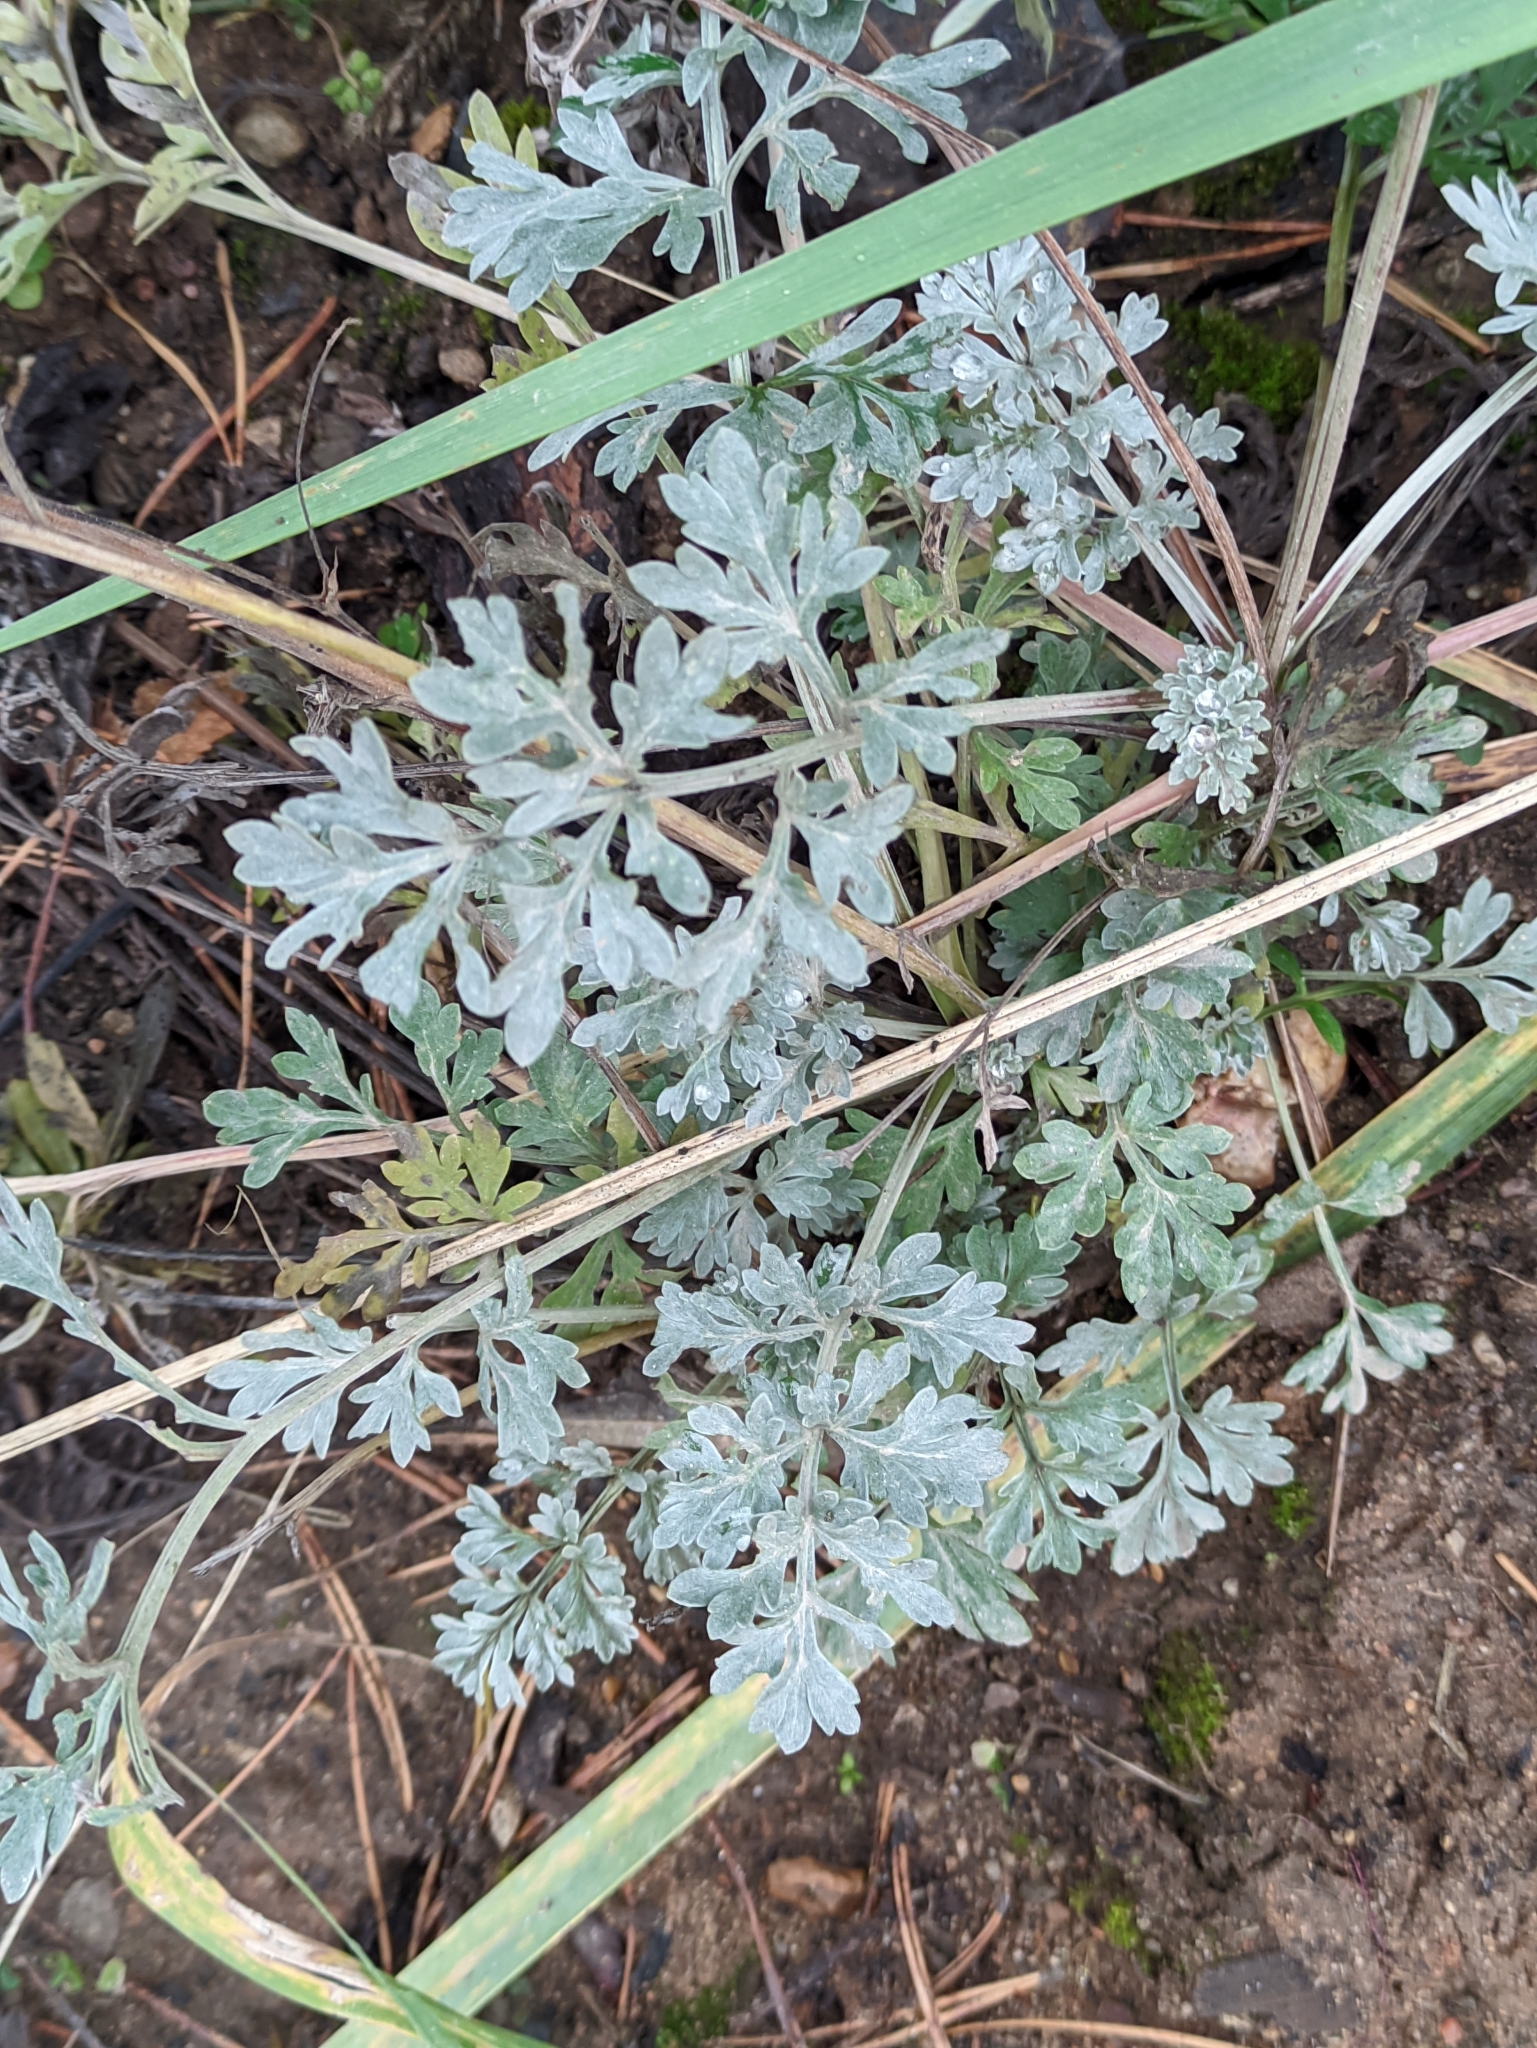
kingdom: Plantae
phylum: Tracheophyta
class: Magnoliopsida
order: Asterales
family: Asteraceae
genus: Artemisia
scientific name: Artemisia absinthium
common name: Wormwood
